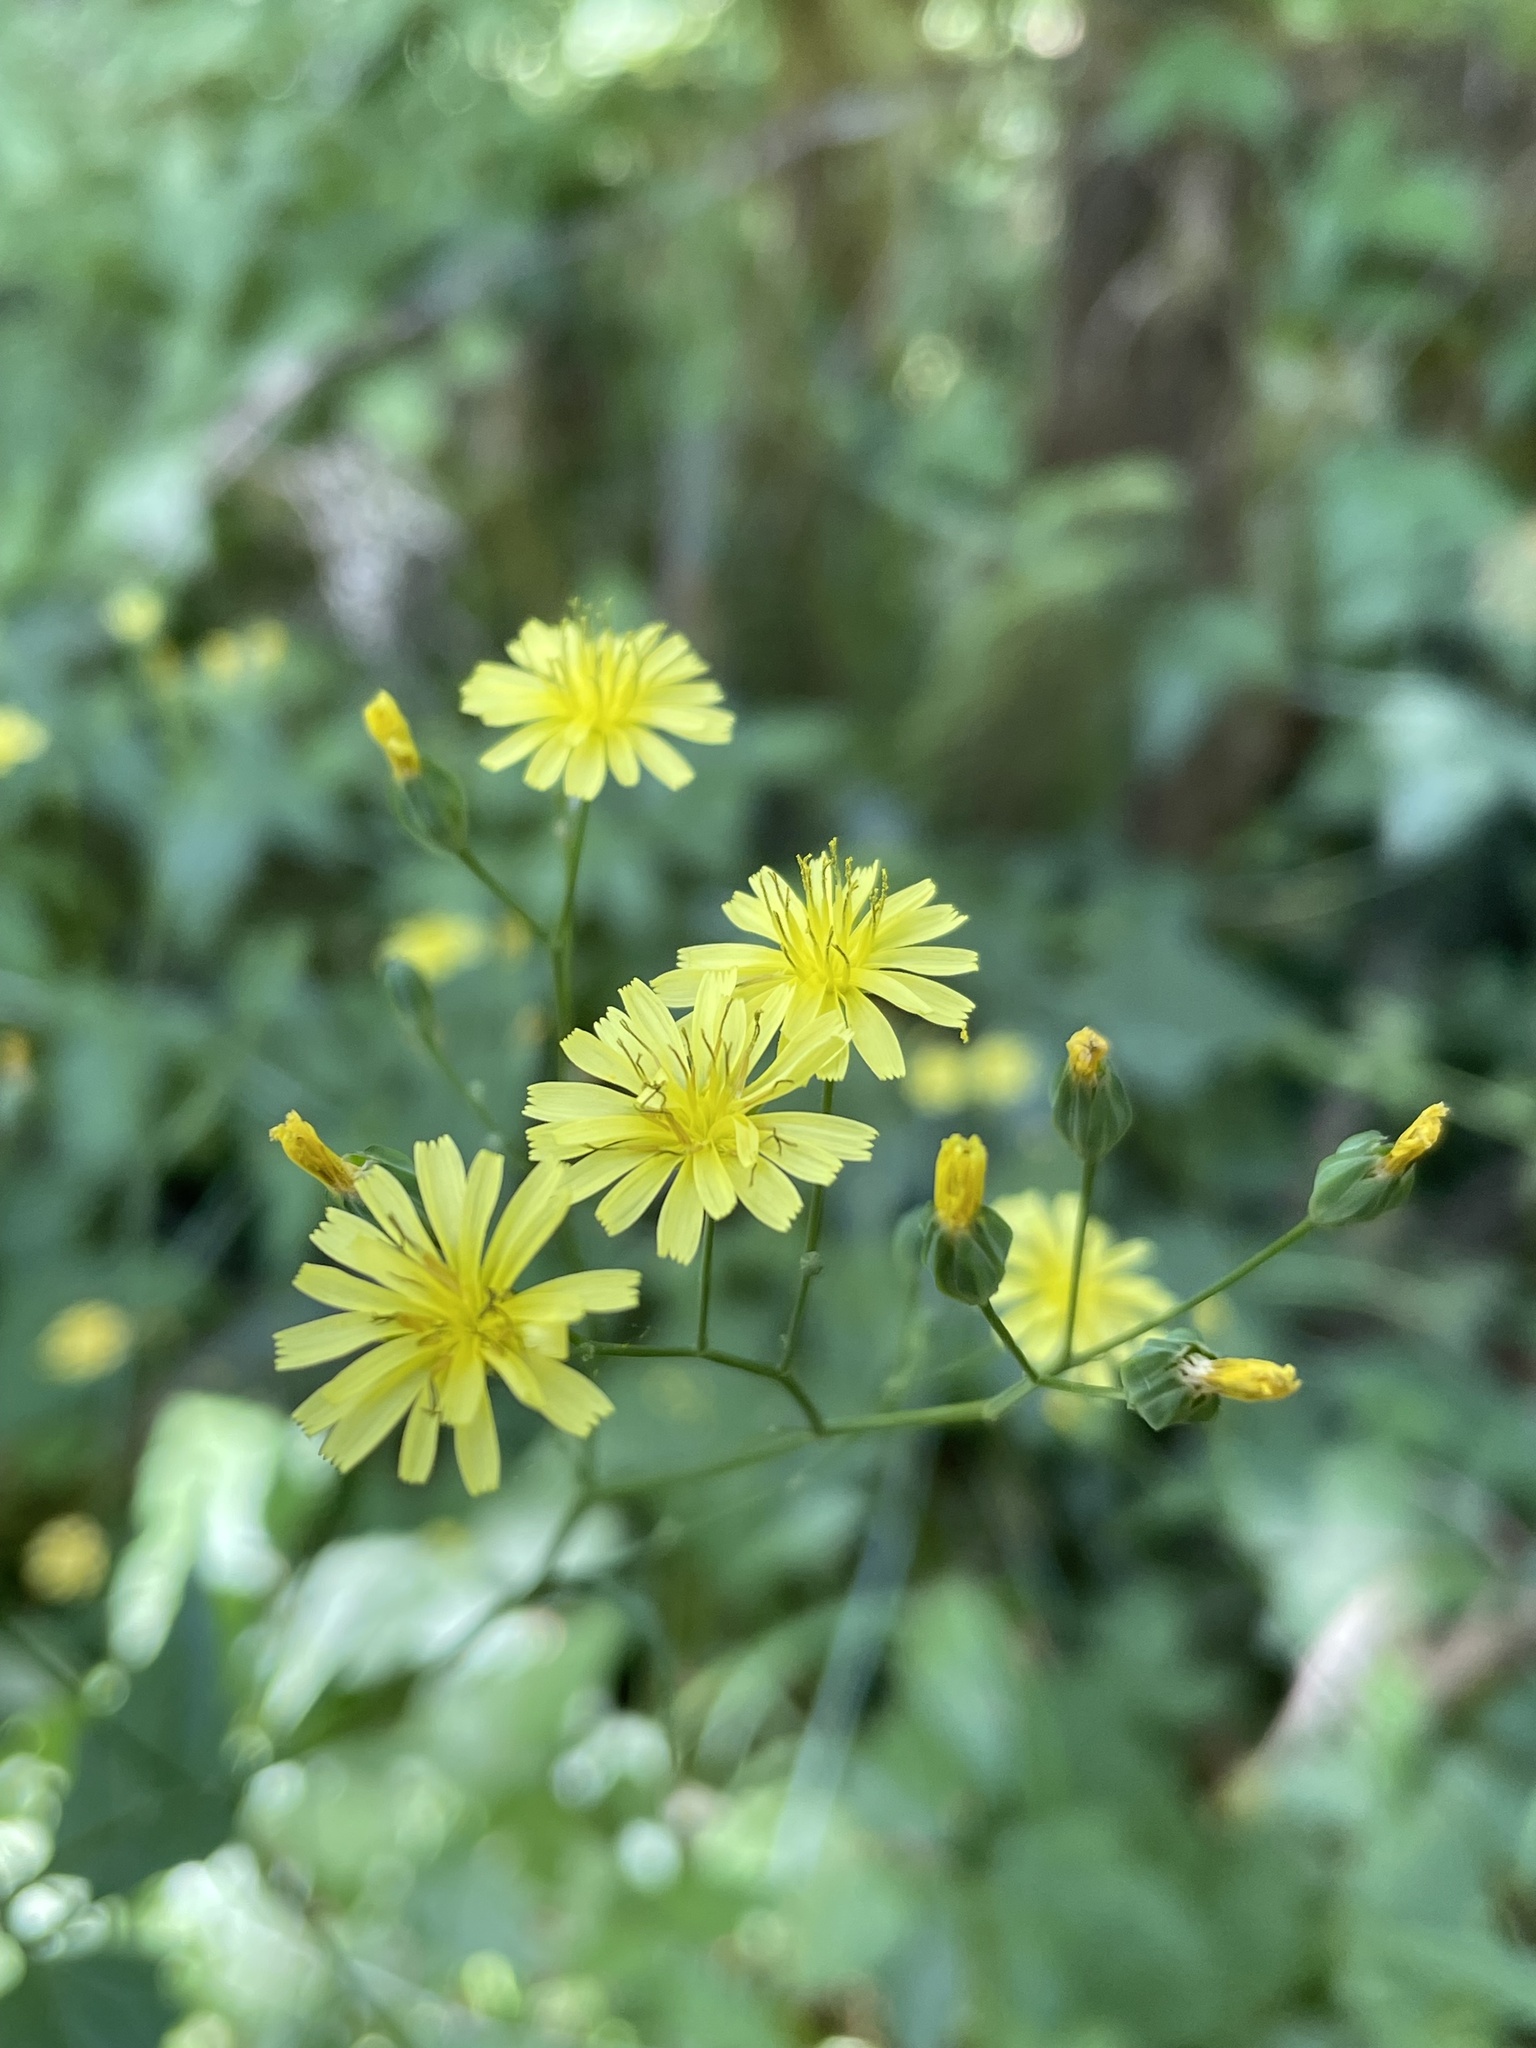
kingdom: Plantae
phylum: Tracheophyta
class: Magnoliopsida
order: Asterales
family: Asteraceae
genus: Lapsana
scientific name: Lapsana communis
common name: Nipplewort
